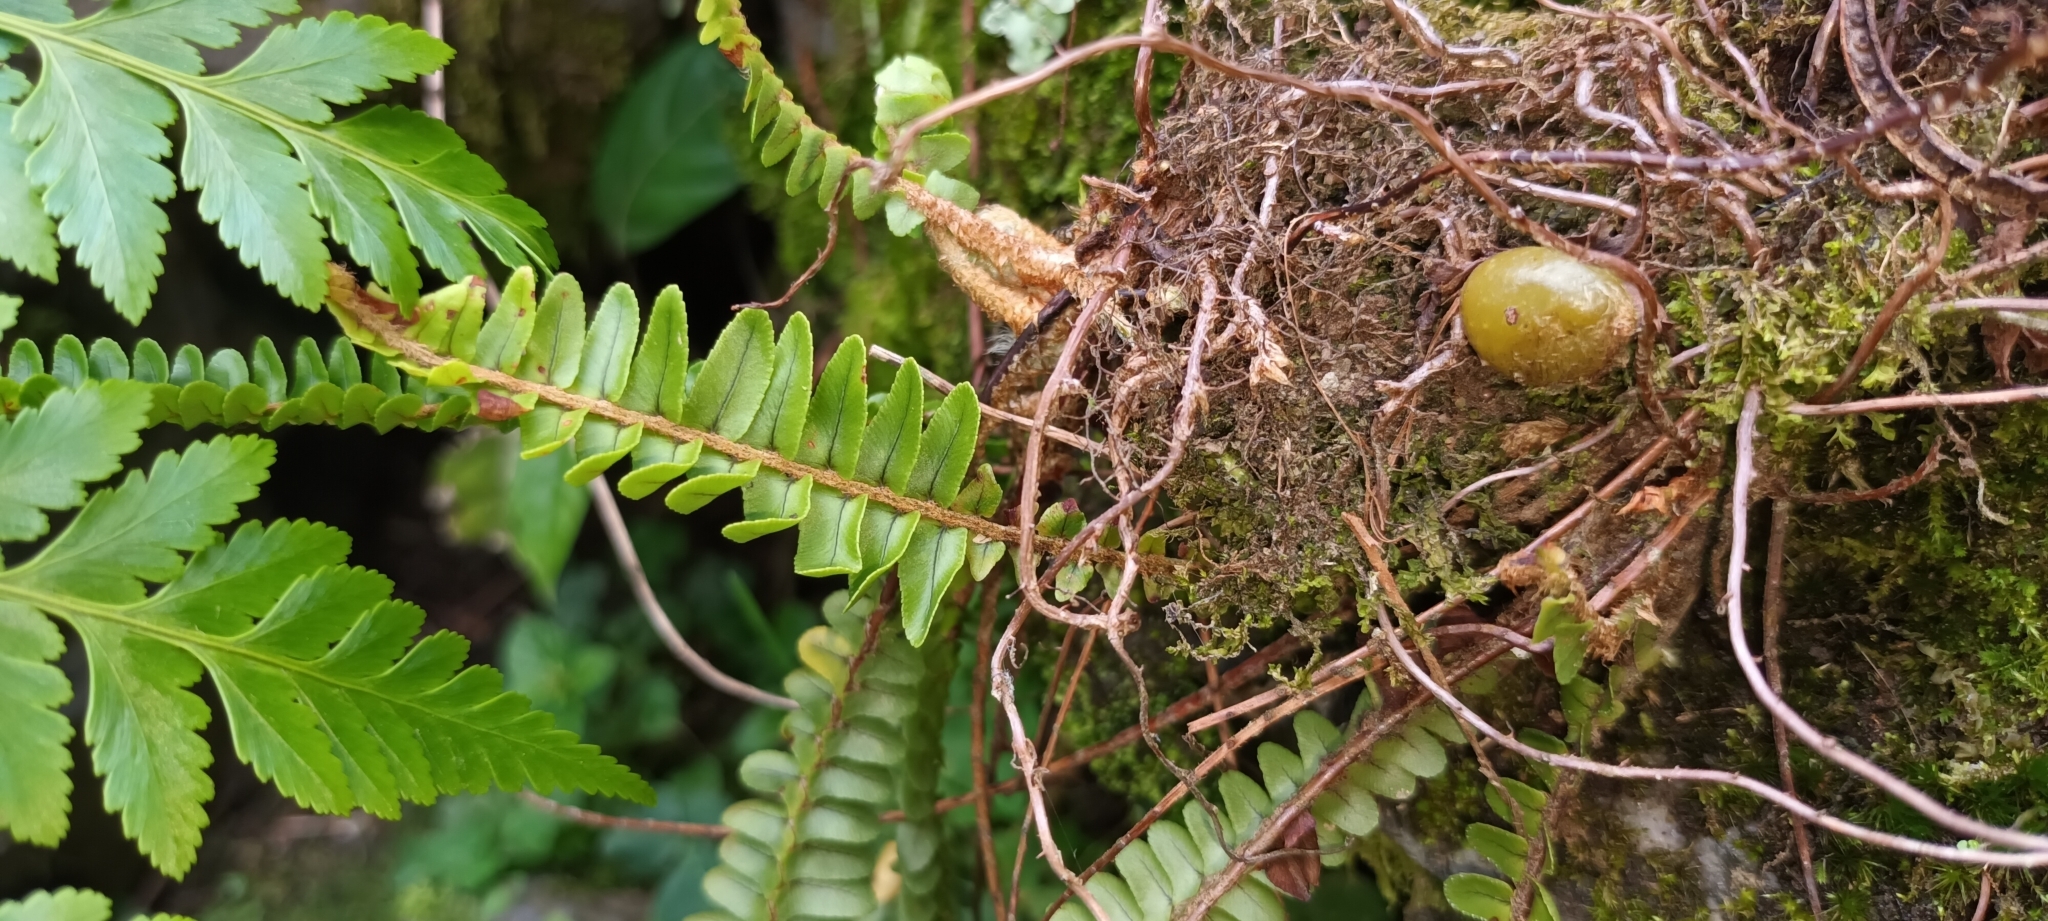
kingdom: Plantae
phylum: Tracheophyta
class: Polypodiopsida
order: Polypodiales
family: Nephrolepidaceae
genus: Nephrolepis
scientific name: Nephrolepis cordifolia
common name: Narrow swordfern
